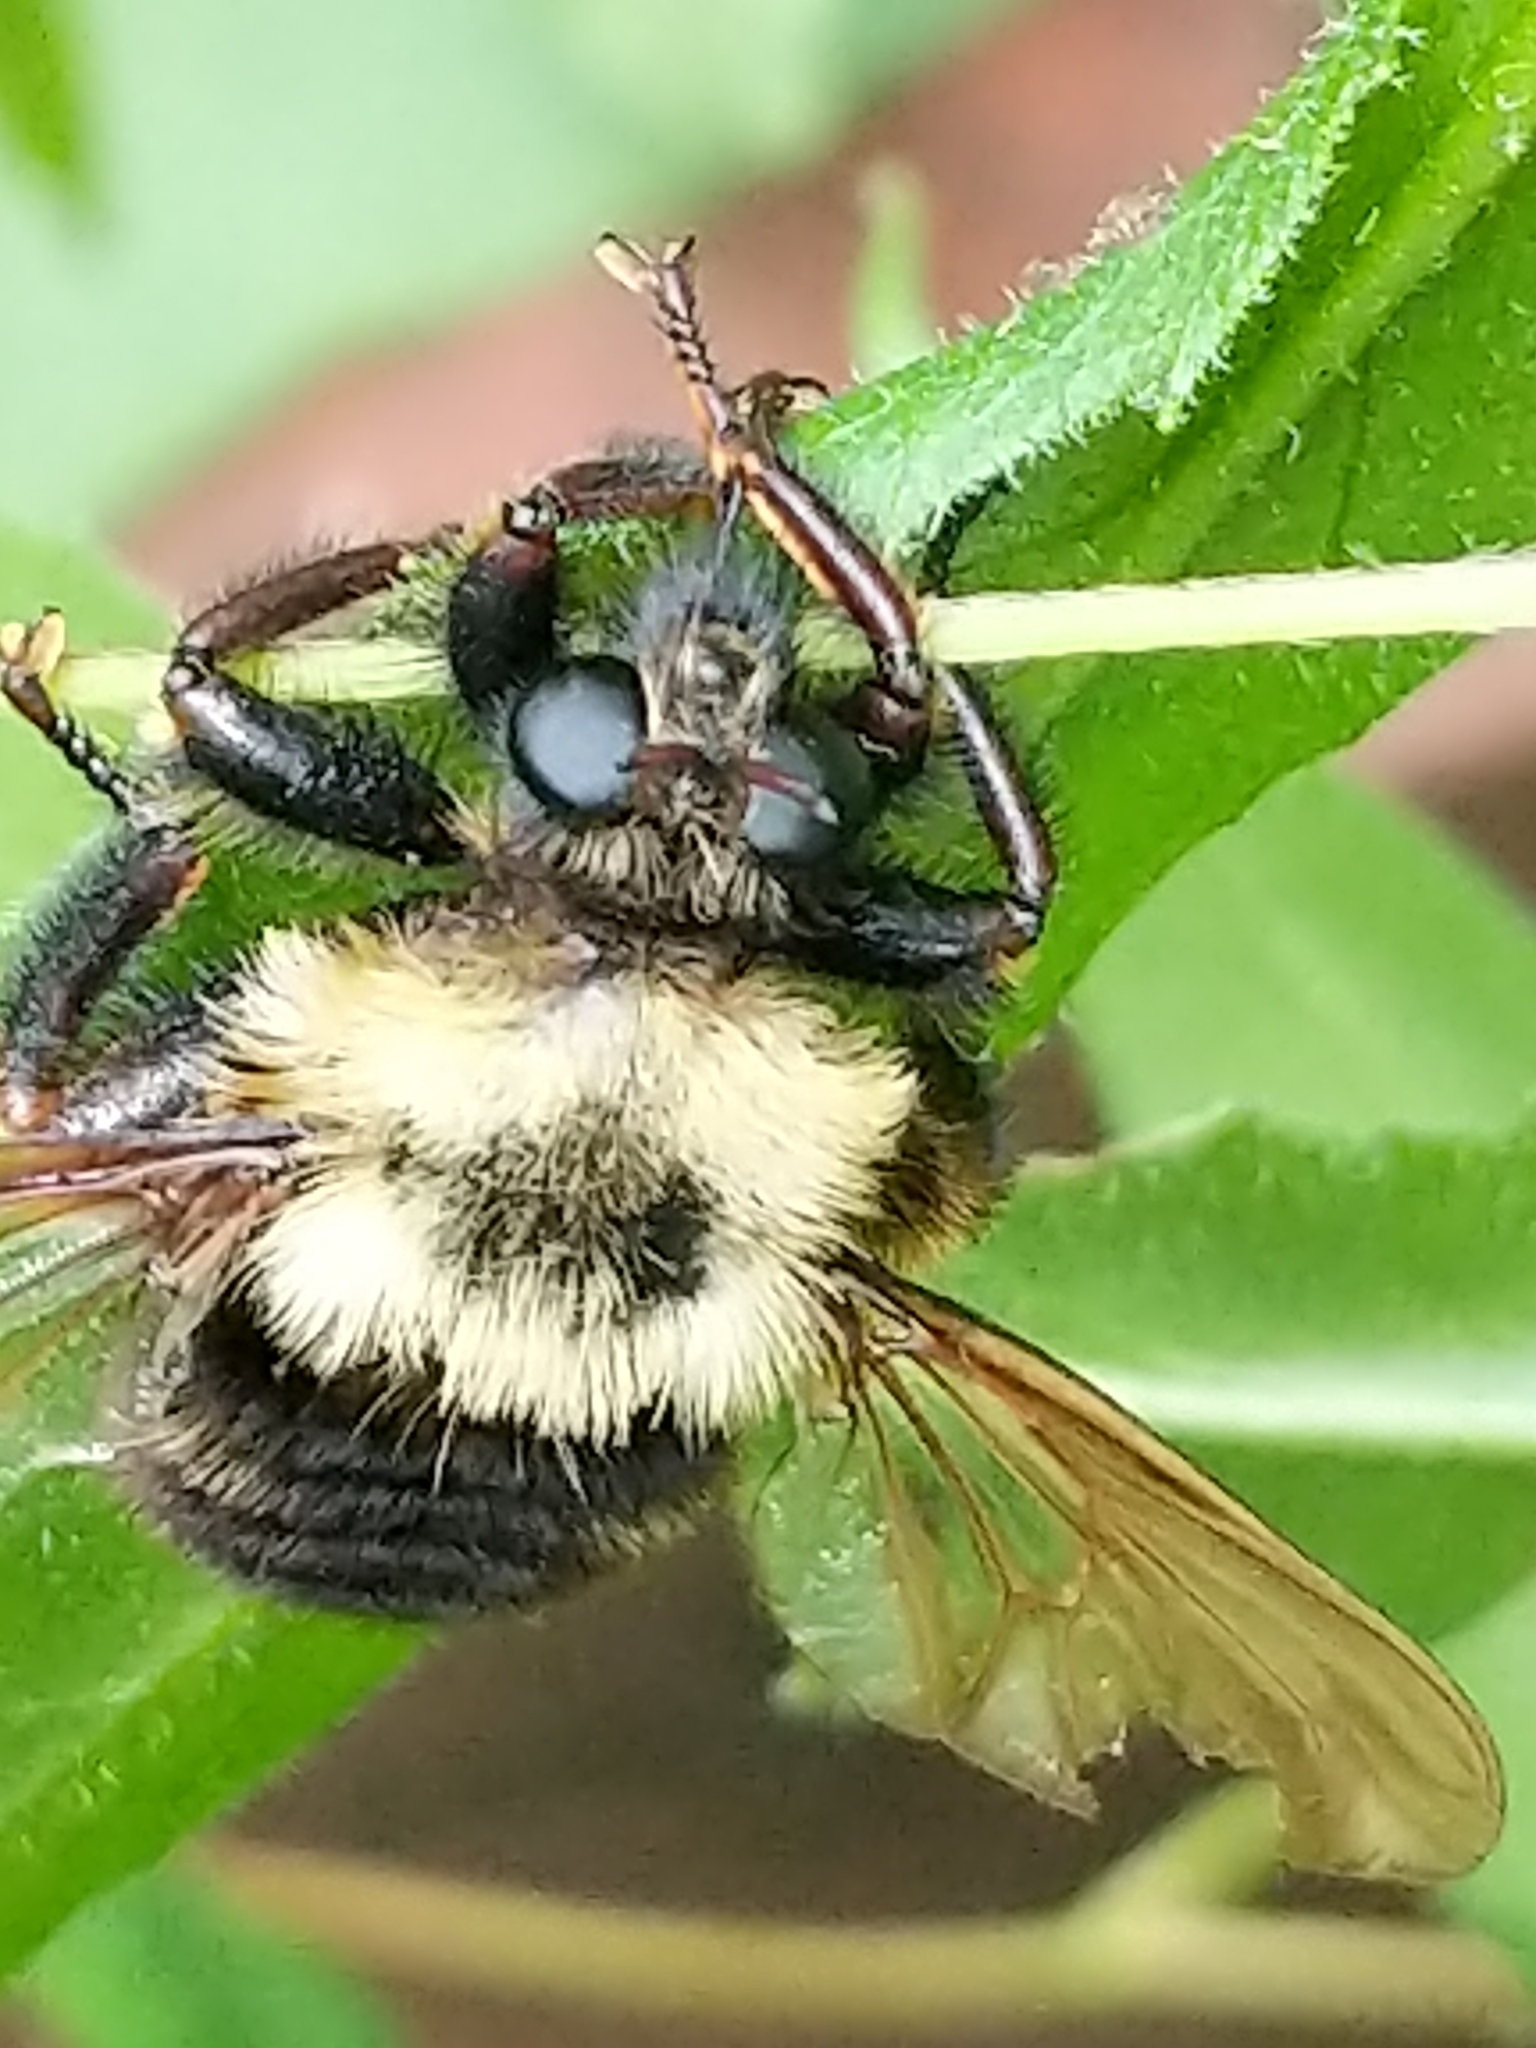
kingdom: Animalia
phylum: Arthropoda
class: Insecta
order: Diptera
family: Asilidae
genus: Laphria
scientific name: Laphria thoracica
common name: Bumble bee mimic robber fly
